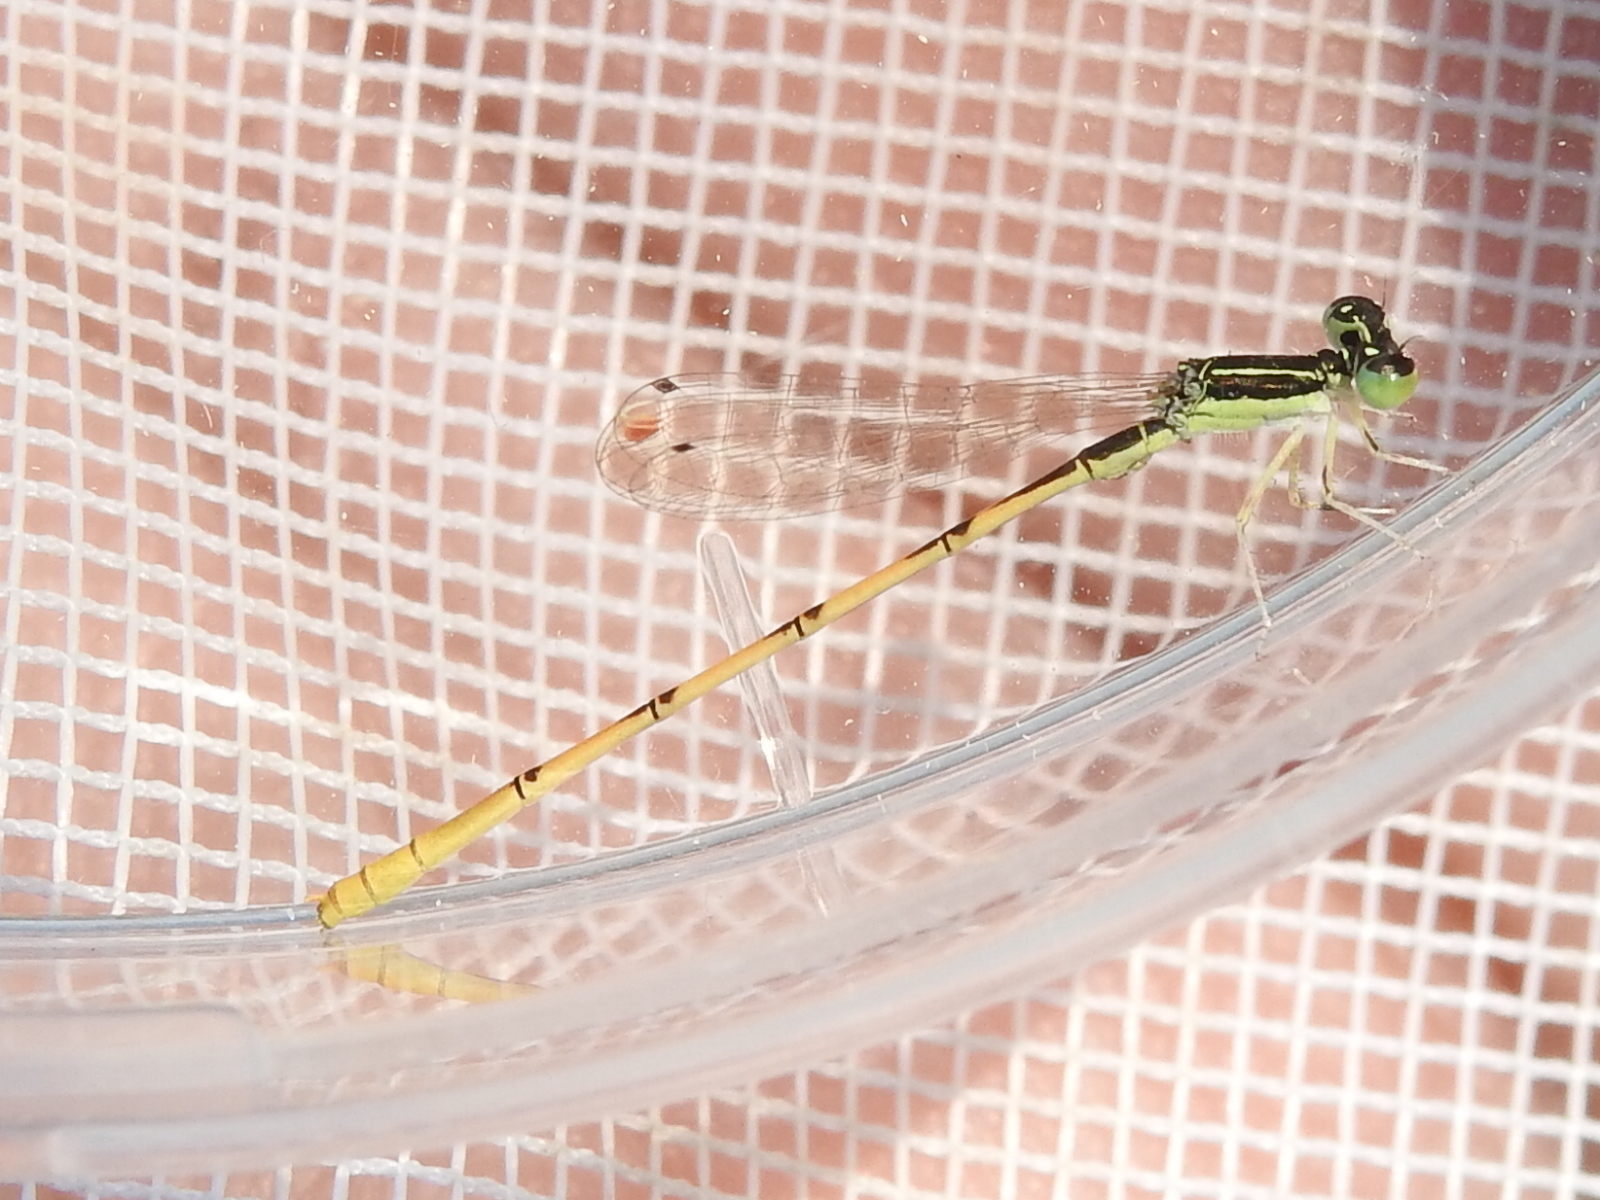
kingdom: Animalia
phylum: Arthropoda
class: Insecta
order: Odonata
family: Coenagrionidae
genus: Ischnura
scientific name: Ischnura hastata
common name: Citrine forktail
